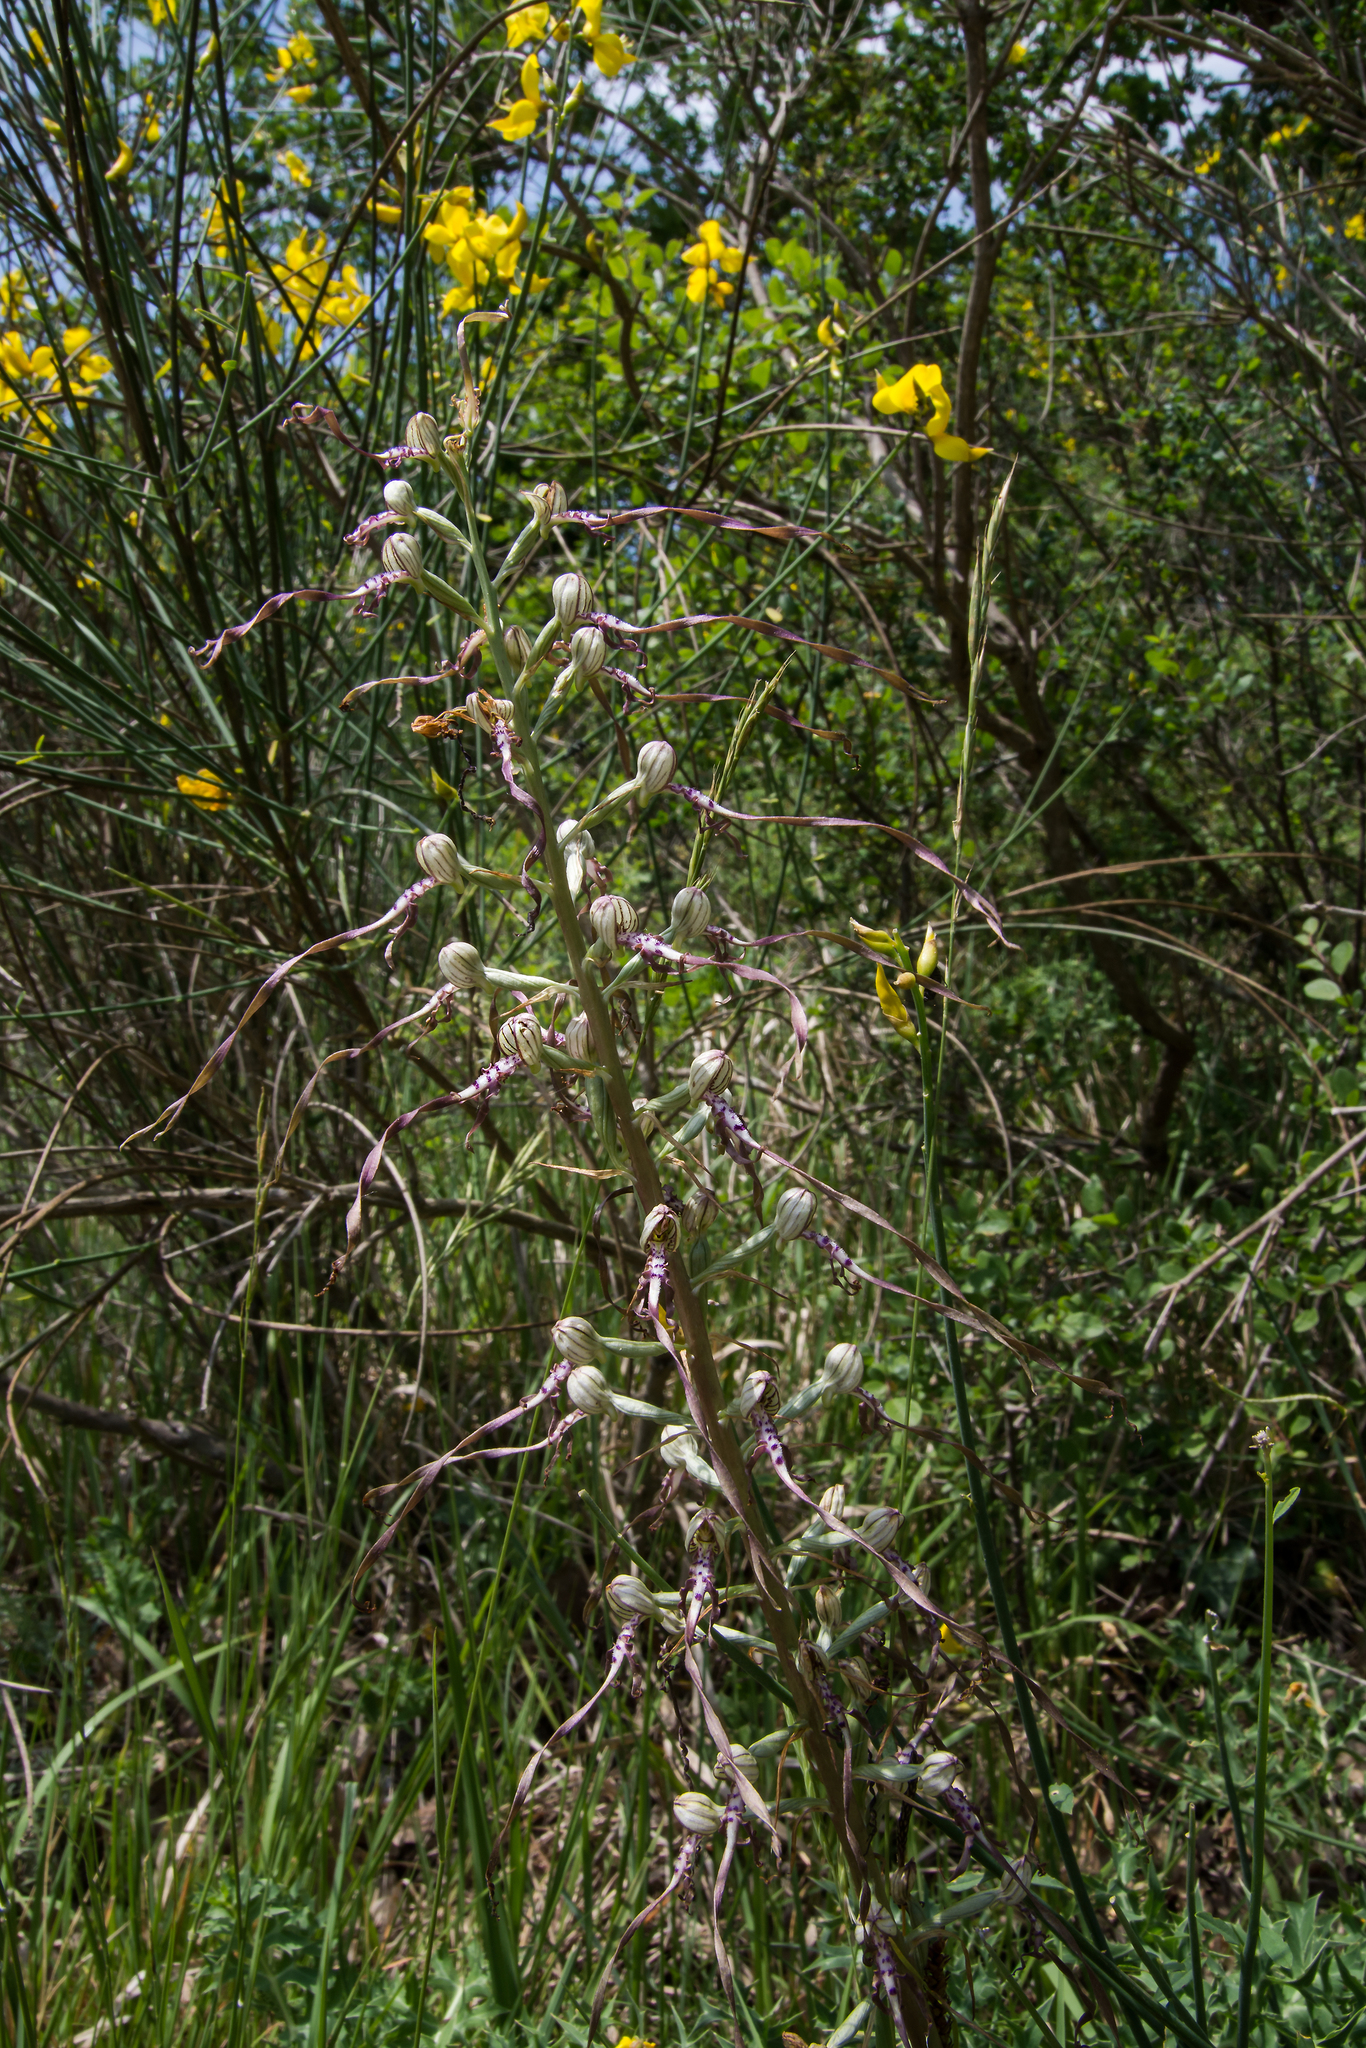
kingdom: Plantae
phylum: Tracheophyta
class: Liliopsida
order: Asparagales
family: Orchidaceae
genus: Himantoglossum
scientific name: Himantoglossum adriaticum
